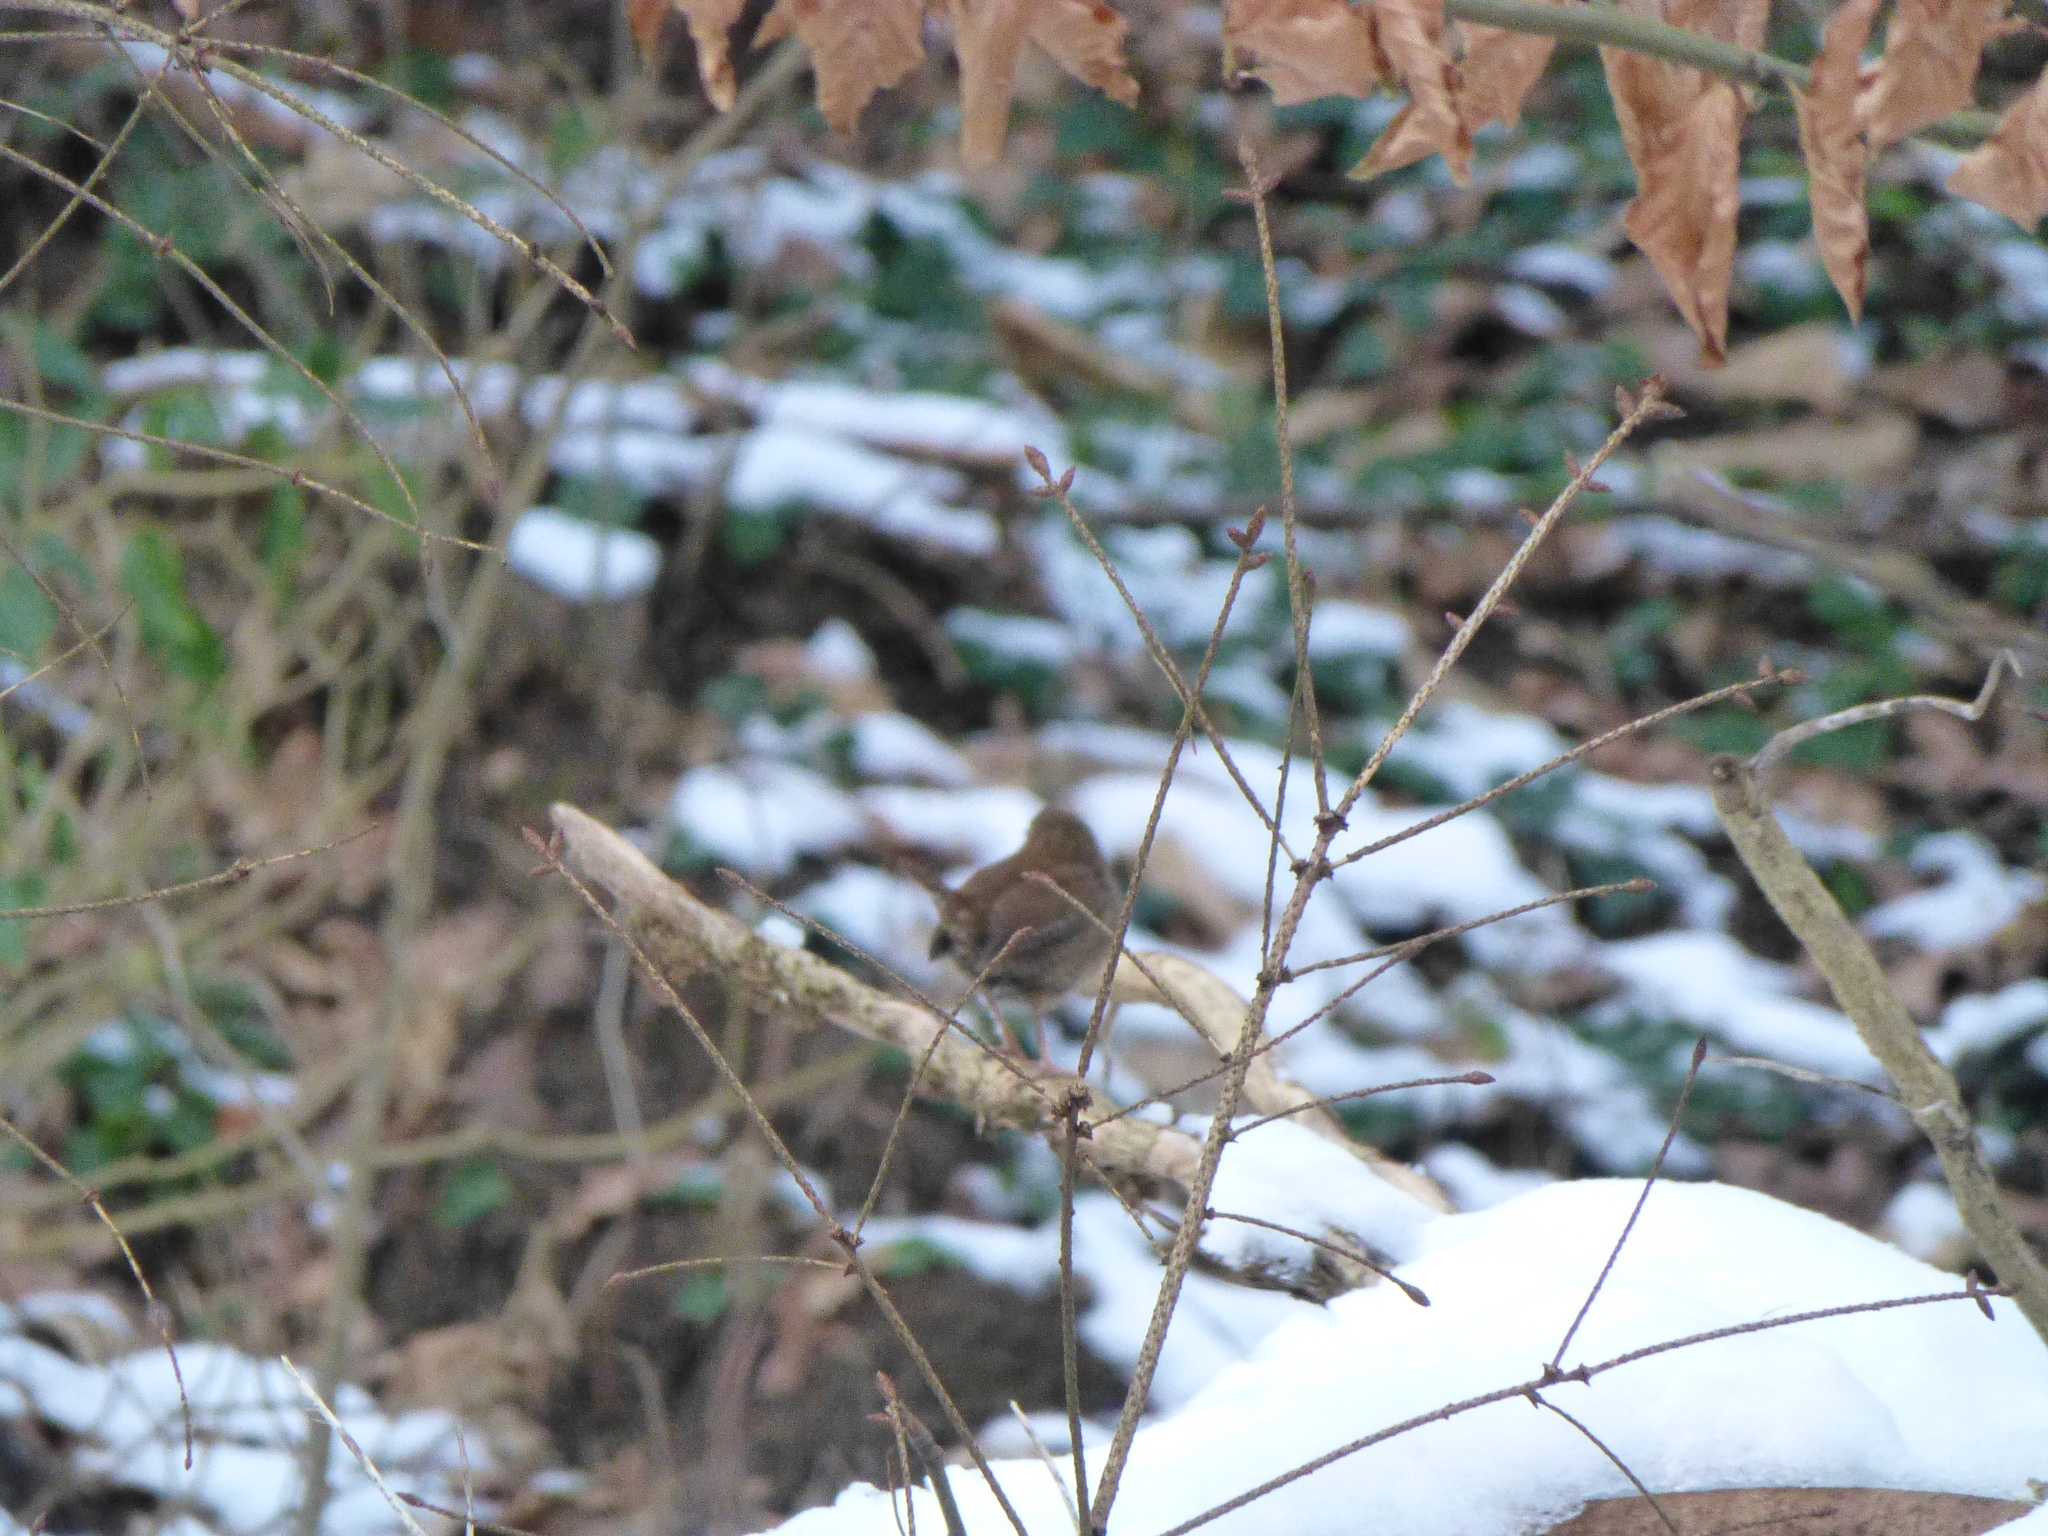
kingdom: Animalia
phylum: Chordata
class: Aves
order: Passeriformes
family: Troglodytidae
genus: Troglodytes
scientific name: Troglodytes troglodytes
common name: Eurasian wren
